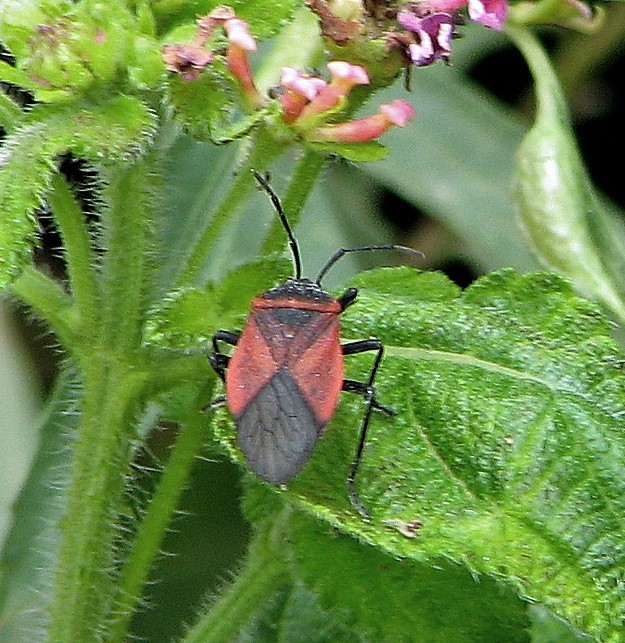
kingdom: Animalia
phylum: Arthropoda
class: Insecta
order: Hemiptera
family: Largidae
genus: Largus
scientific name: Largus rufipennis
